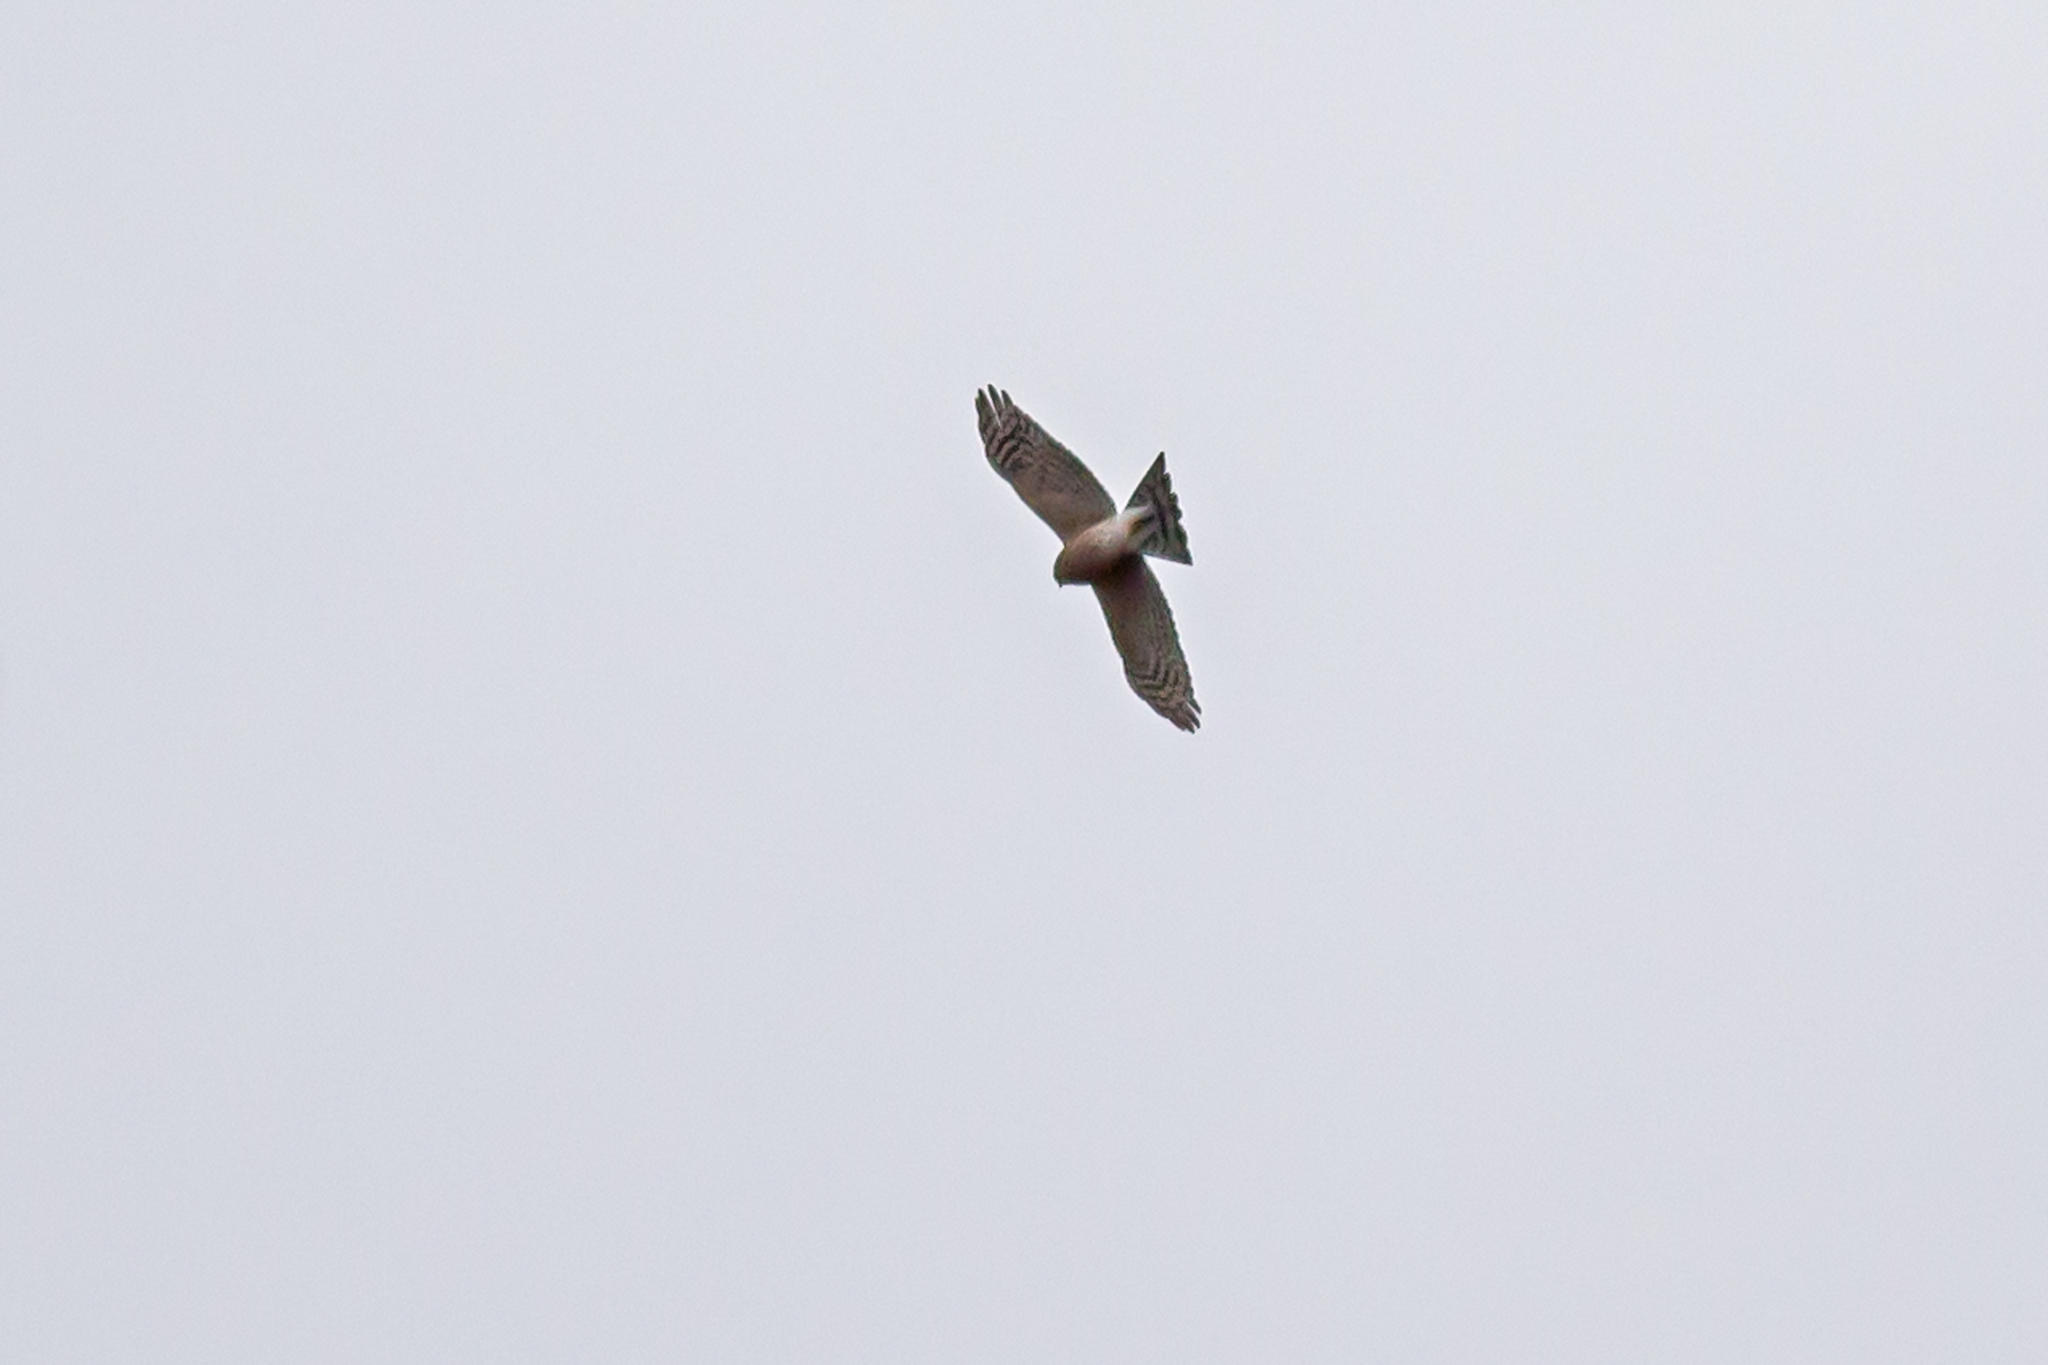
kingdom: Animalia
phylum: Chordata
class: Aves
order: Accipitriformes
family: Accipitridae
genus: Accipiter
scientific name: Accipiter striatus
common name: Sharp-shinned hawk
